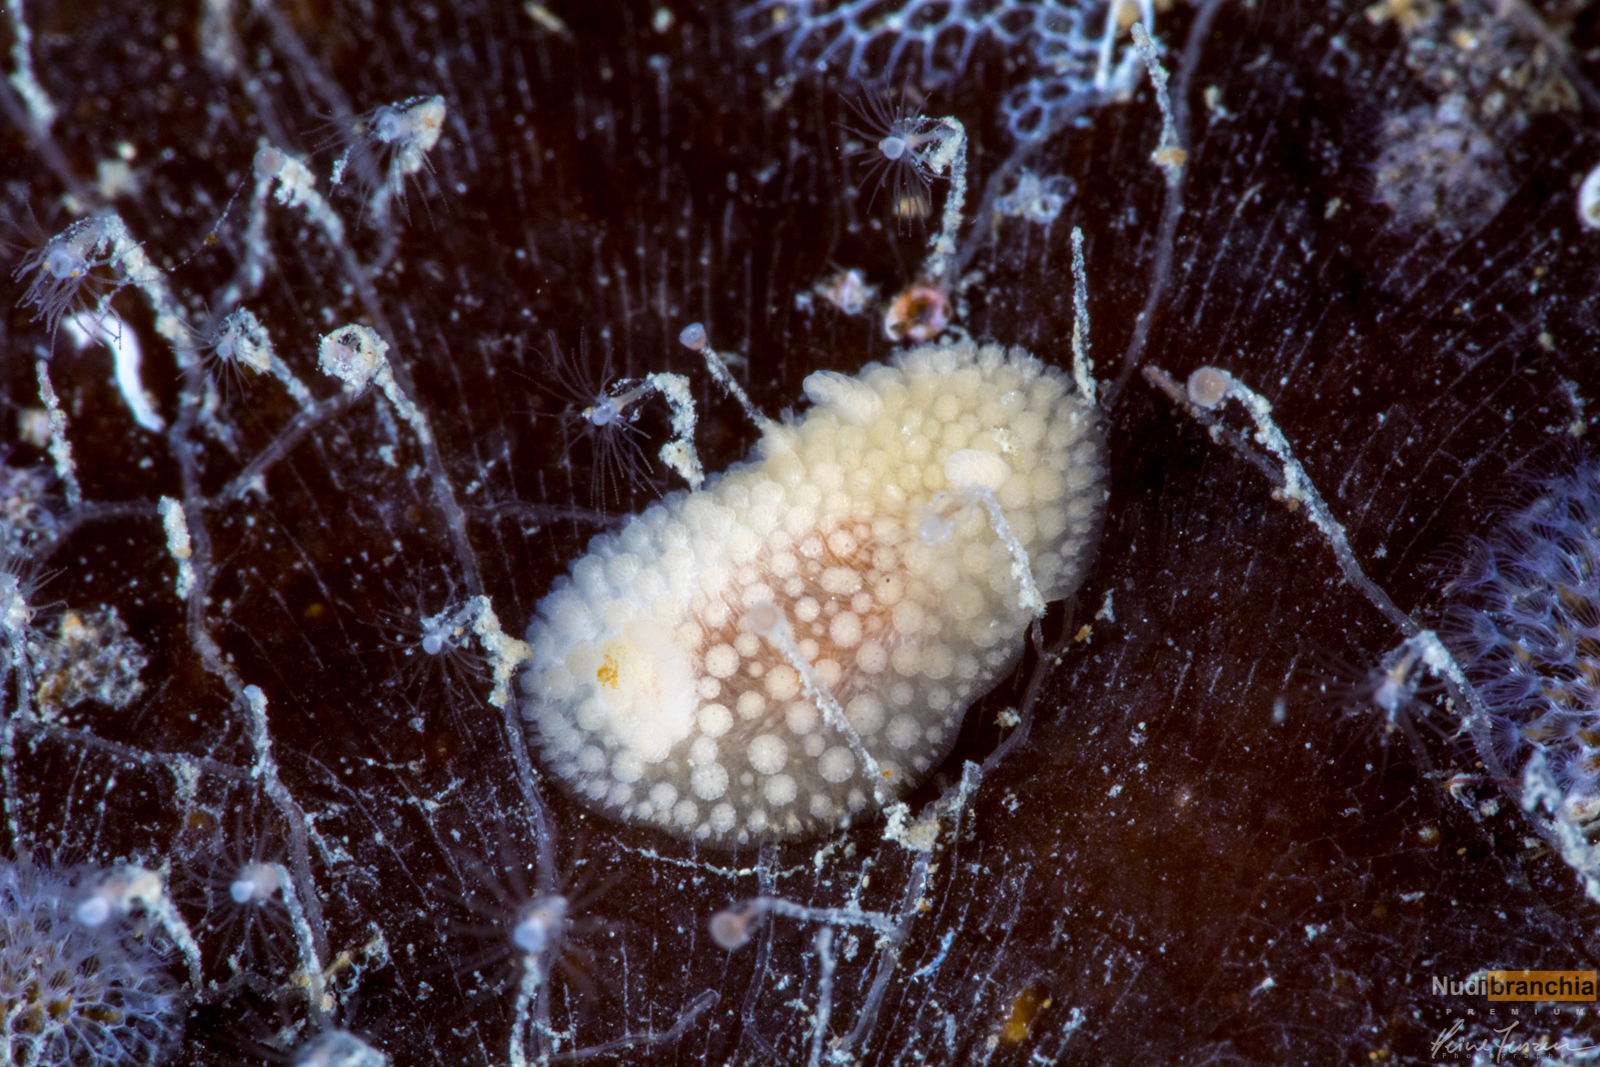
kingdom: Animalia
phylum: Mollusca
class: Gastropoda
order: Nudibranchia
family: Onchidorididae
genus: Onchidoris
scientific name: Onchidoris muricata
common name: Rough doris
